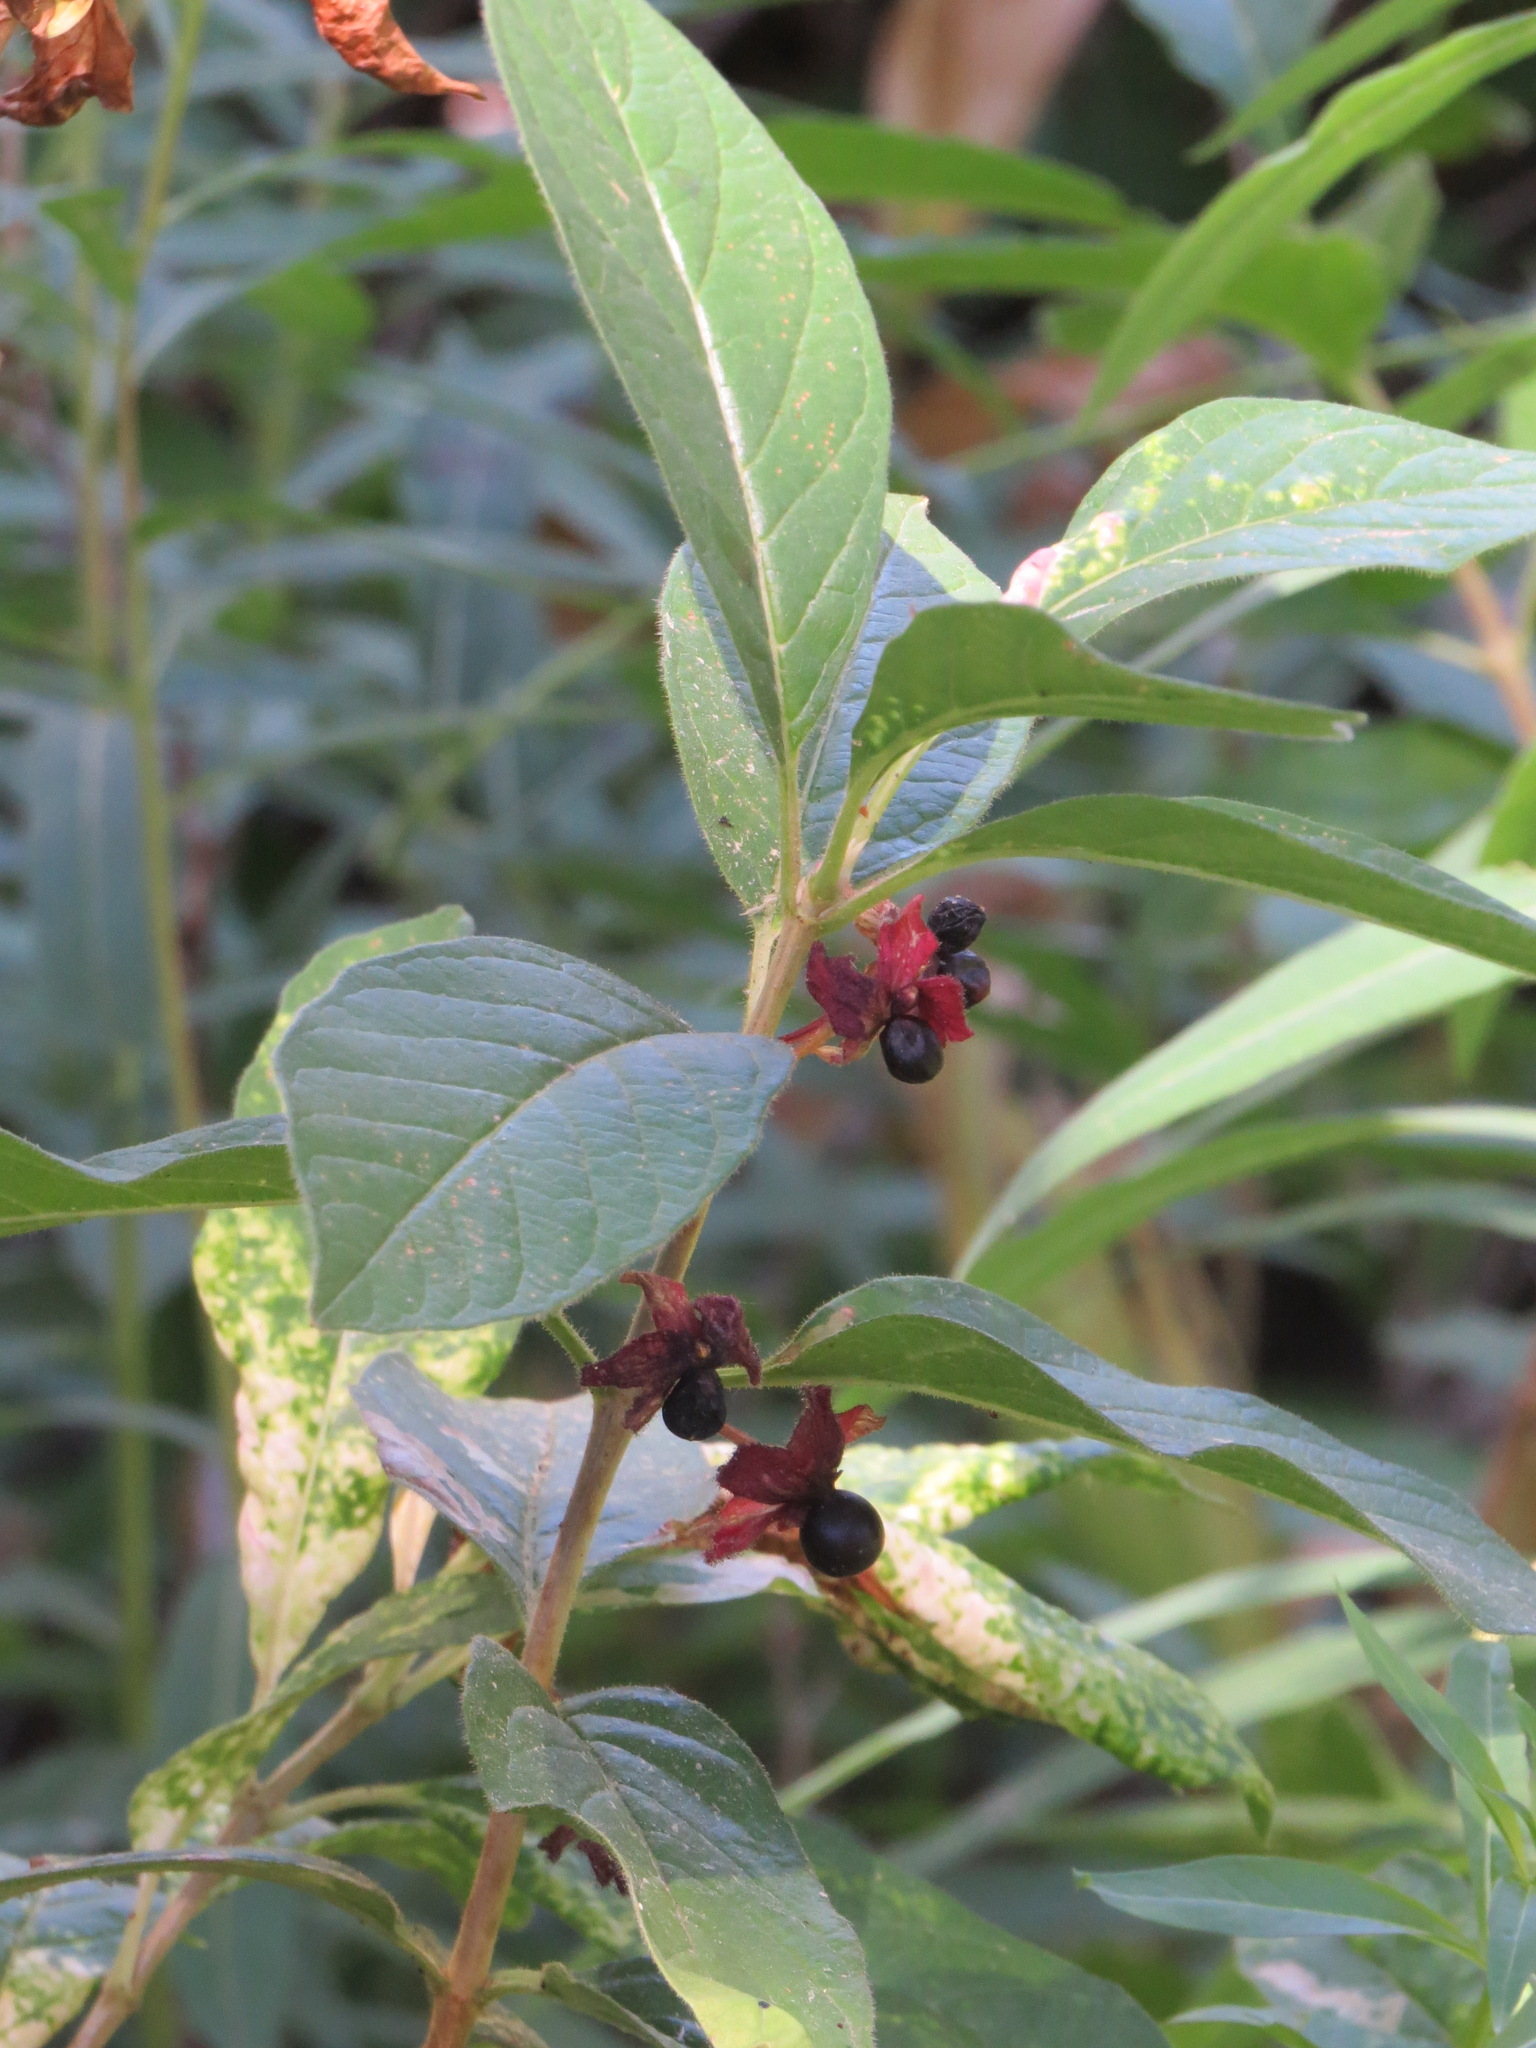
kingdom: Plantae
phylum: Tracheophyta
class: Magnoliopsida
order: Dipsacales
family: Caprifoliaceae
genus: Lonicera
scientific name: Lonicera involucrata
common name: Californian honeysuckle
